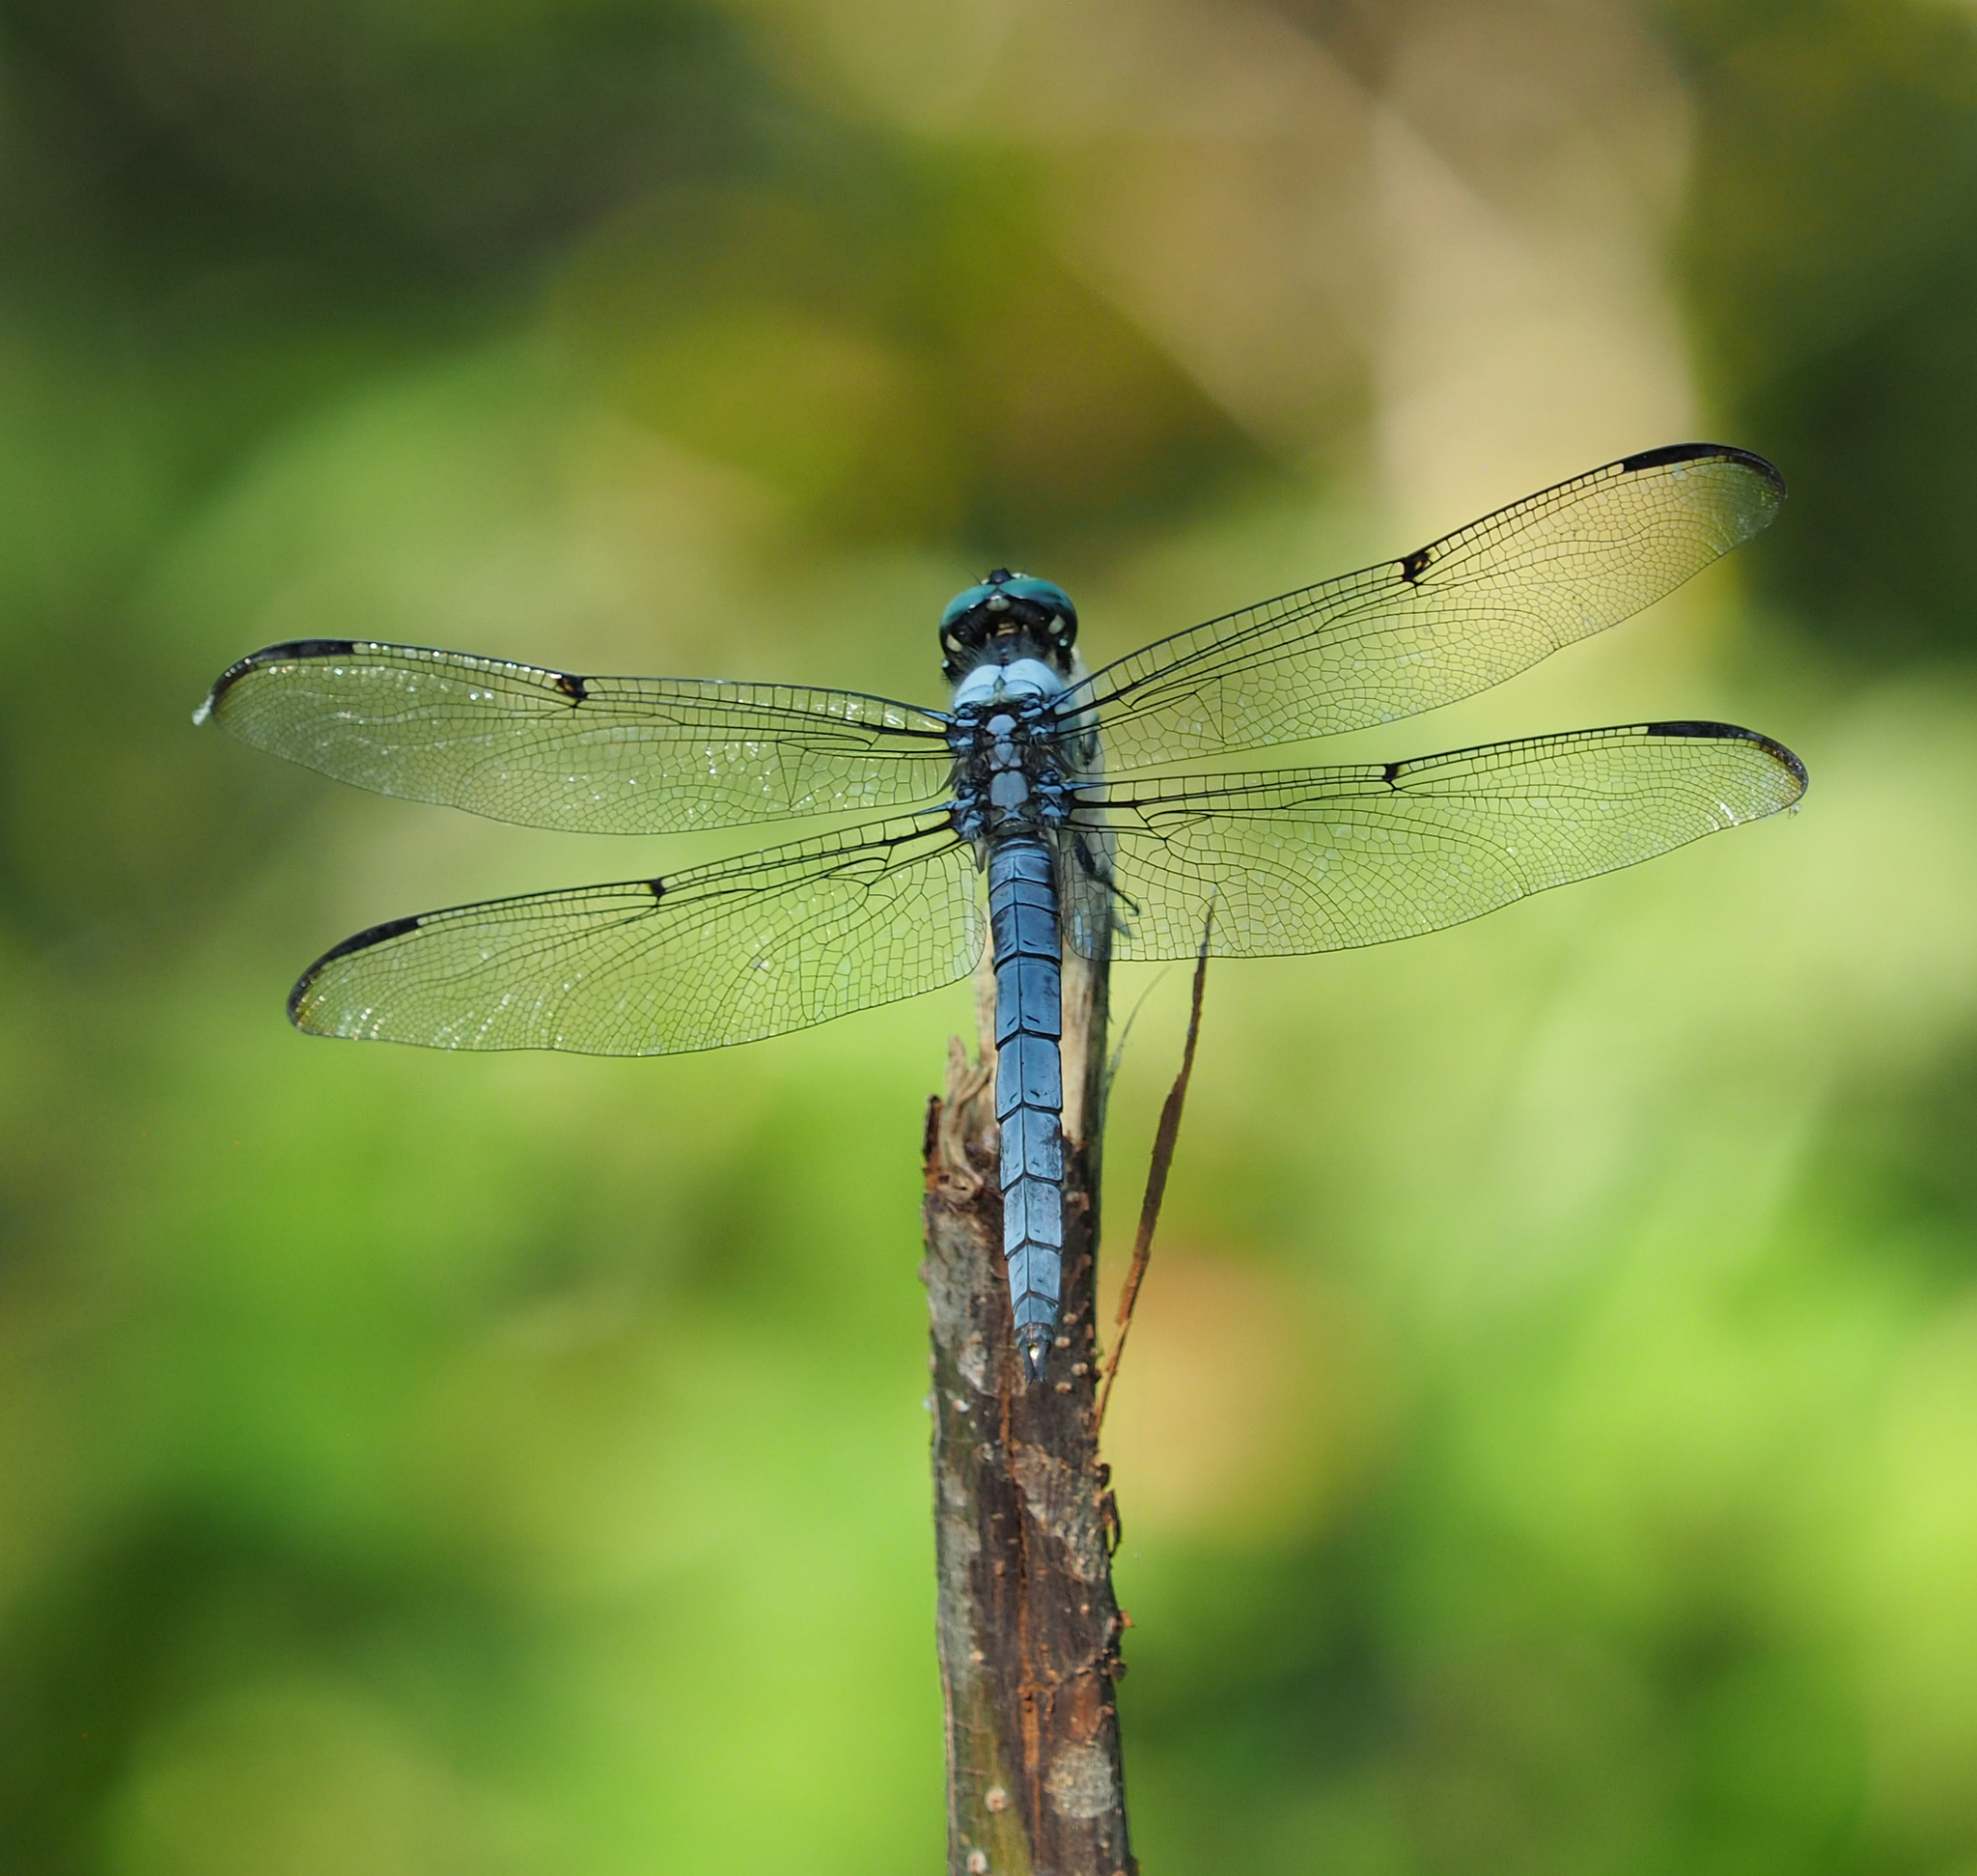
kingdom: Animalia
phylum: Arthropoda
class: Insecta
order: Odonata
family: Libellulidae
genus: Libellula
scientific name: Libellula vibrans
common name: Great blue skimmer
